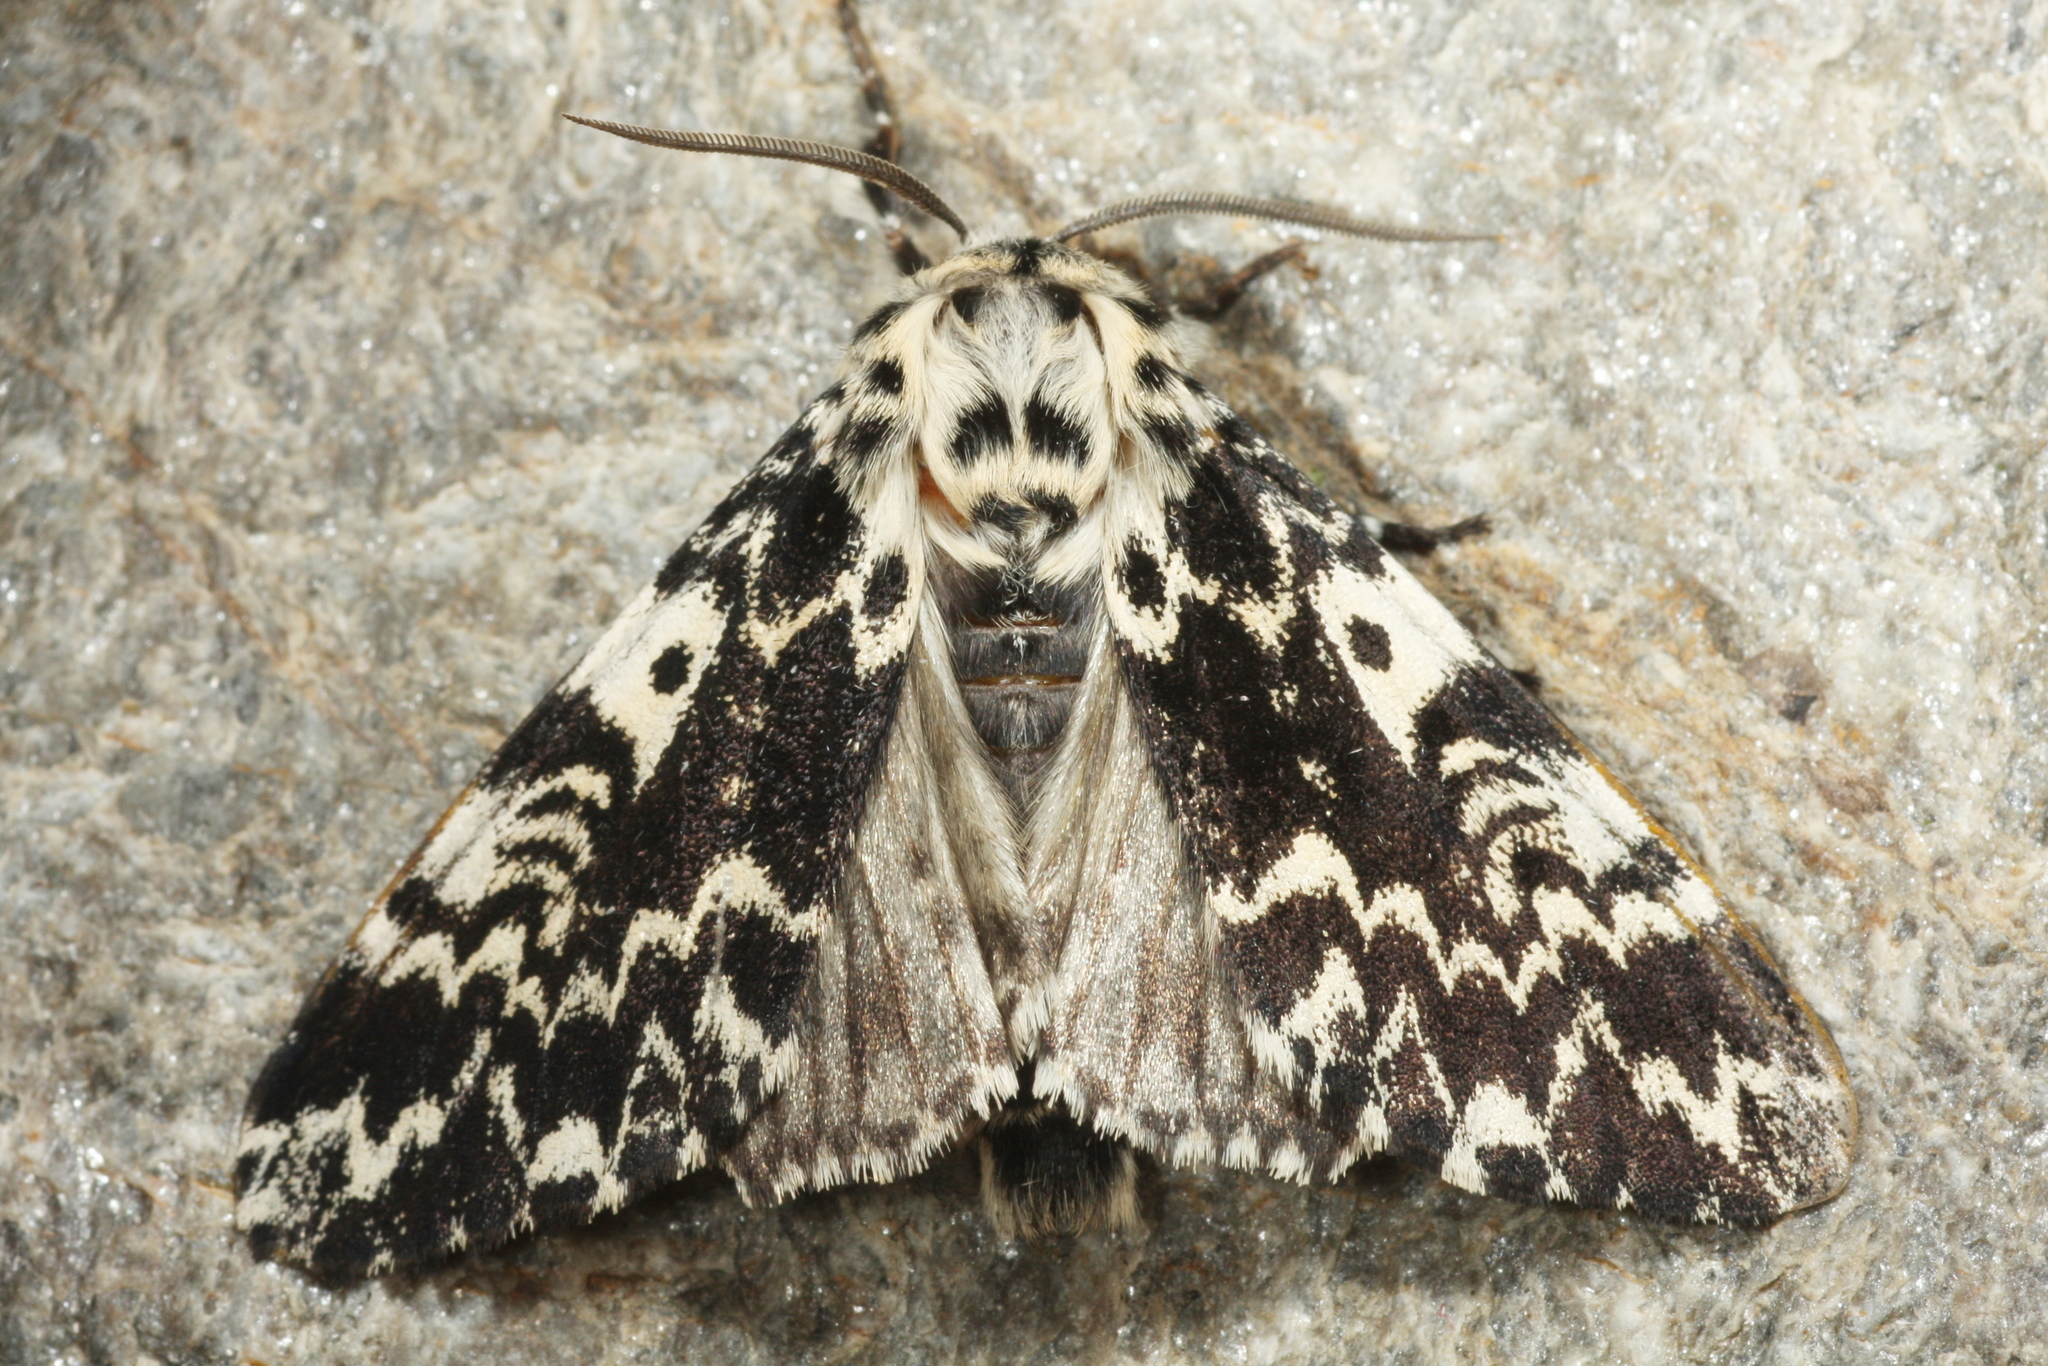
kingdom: Animalia
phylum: Arthropoda
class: Insecta
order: Lepidoptera
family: Noctuidae
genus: Panthea
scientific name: Panthea coenobita
